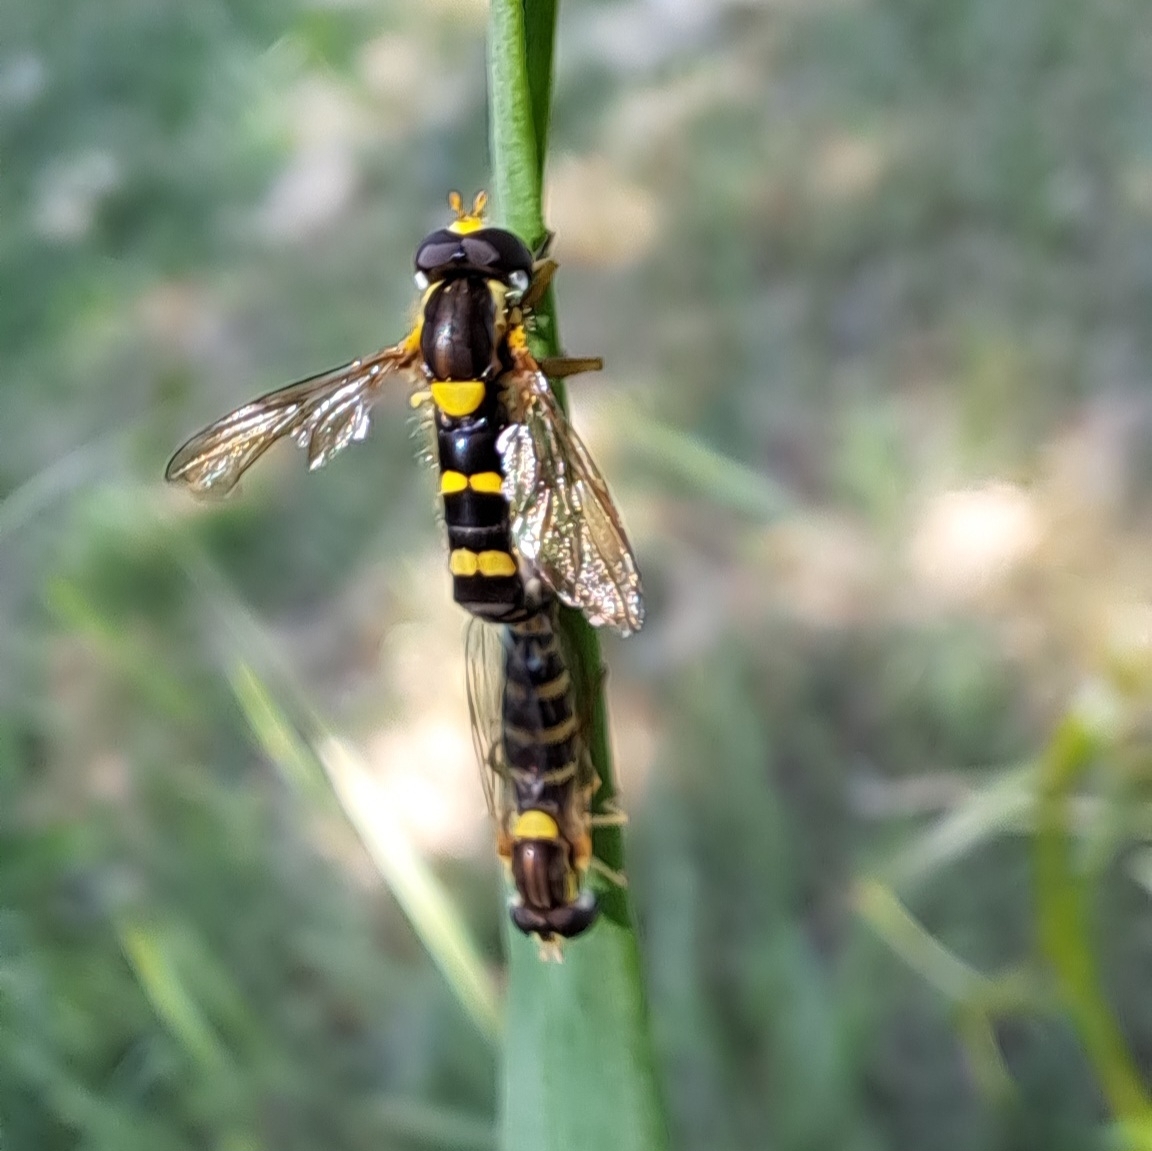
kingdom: Animalia
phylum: Arthropoda
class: Insecta
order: Diptera
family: Syrphidae
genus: Sphaerophoria
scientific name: Sphaerophoria scripta
